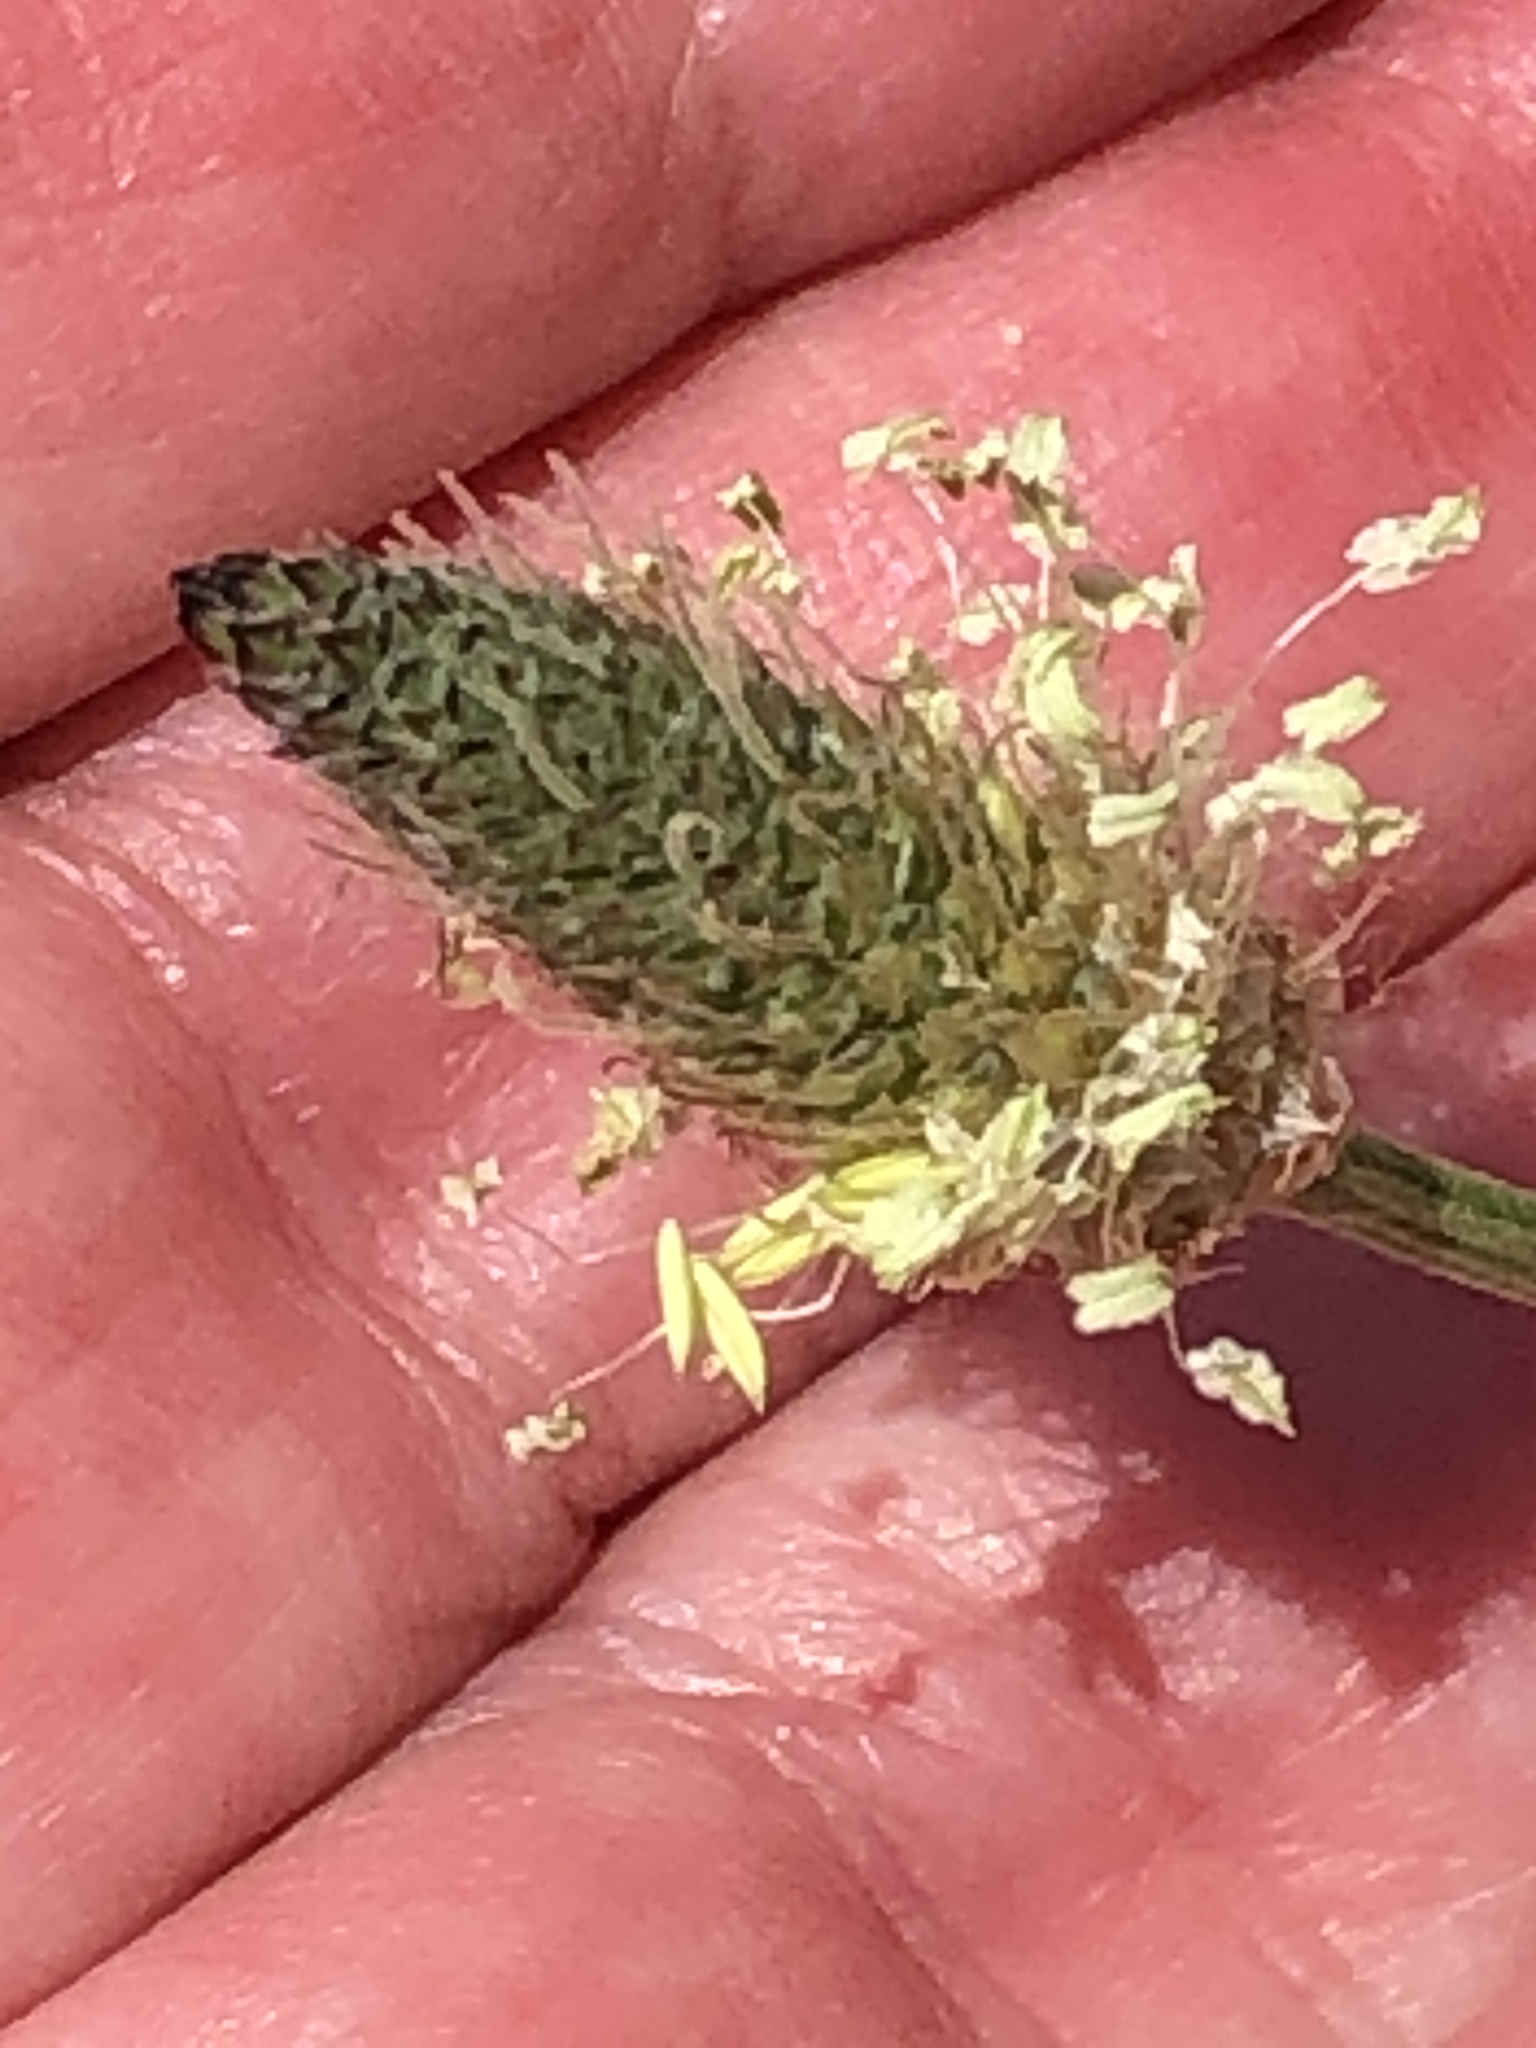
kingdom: Plantae
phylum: Tracheophyta
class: Magnoliopsida
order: Lamiales
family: Plantaginaceae
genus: Plantago
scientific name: Plantago lanceolata
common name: Ribwort plantain
